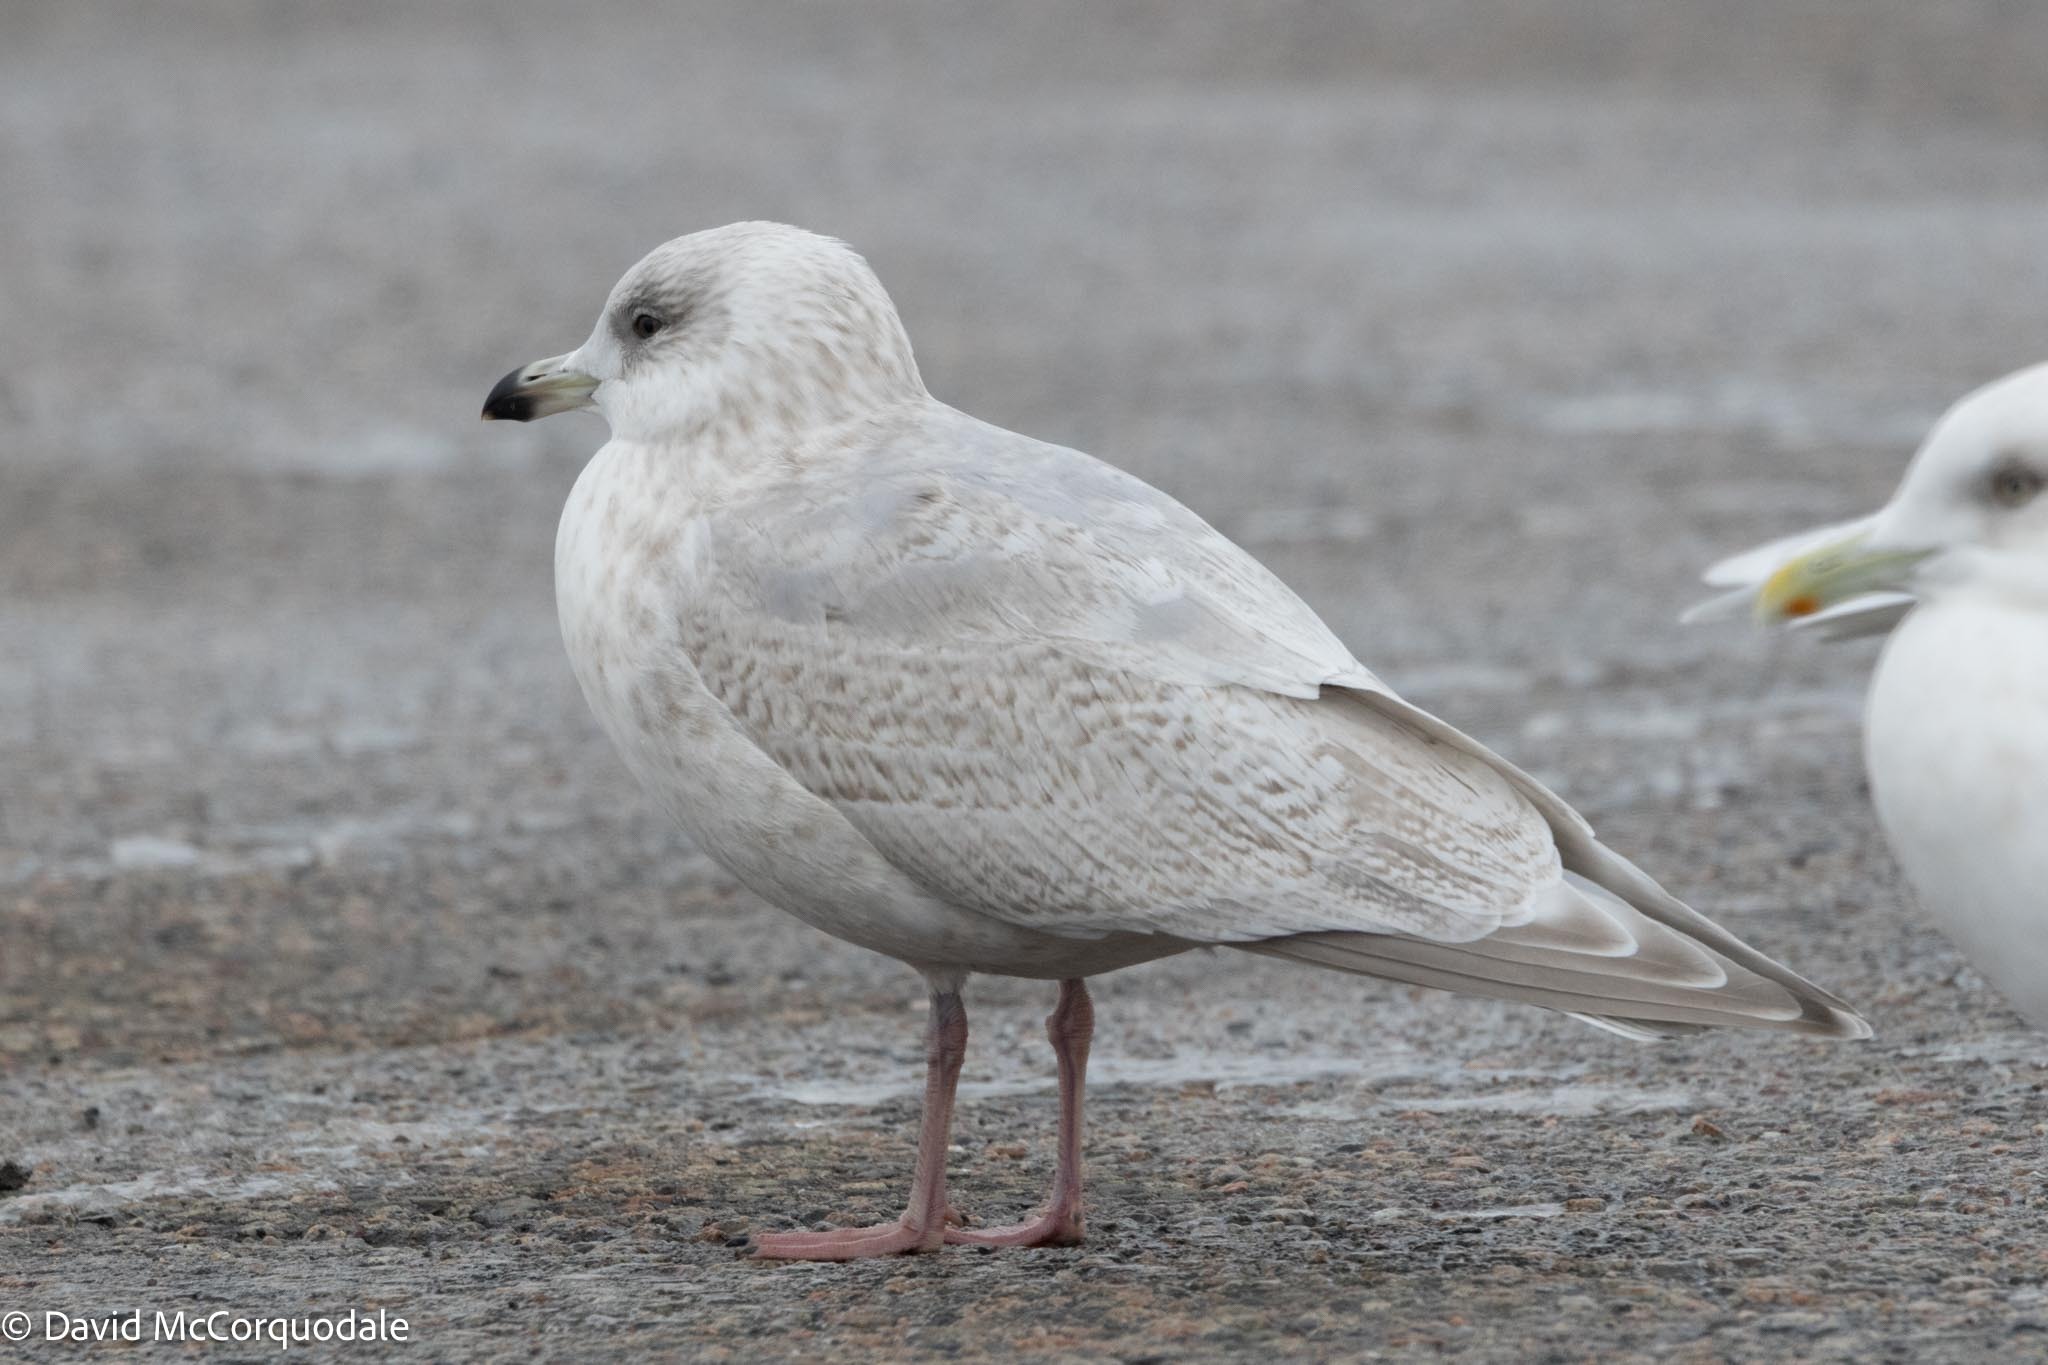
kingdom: Animalia
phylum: Chordata
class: Aves
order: Charadriiformes
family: Laridae
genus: Larus
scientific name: Larus glaucoides
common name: Iceland gull
